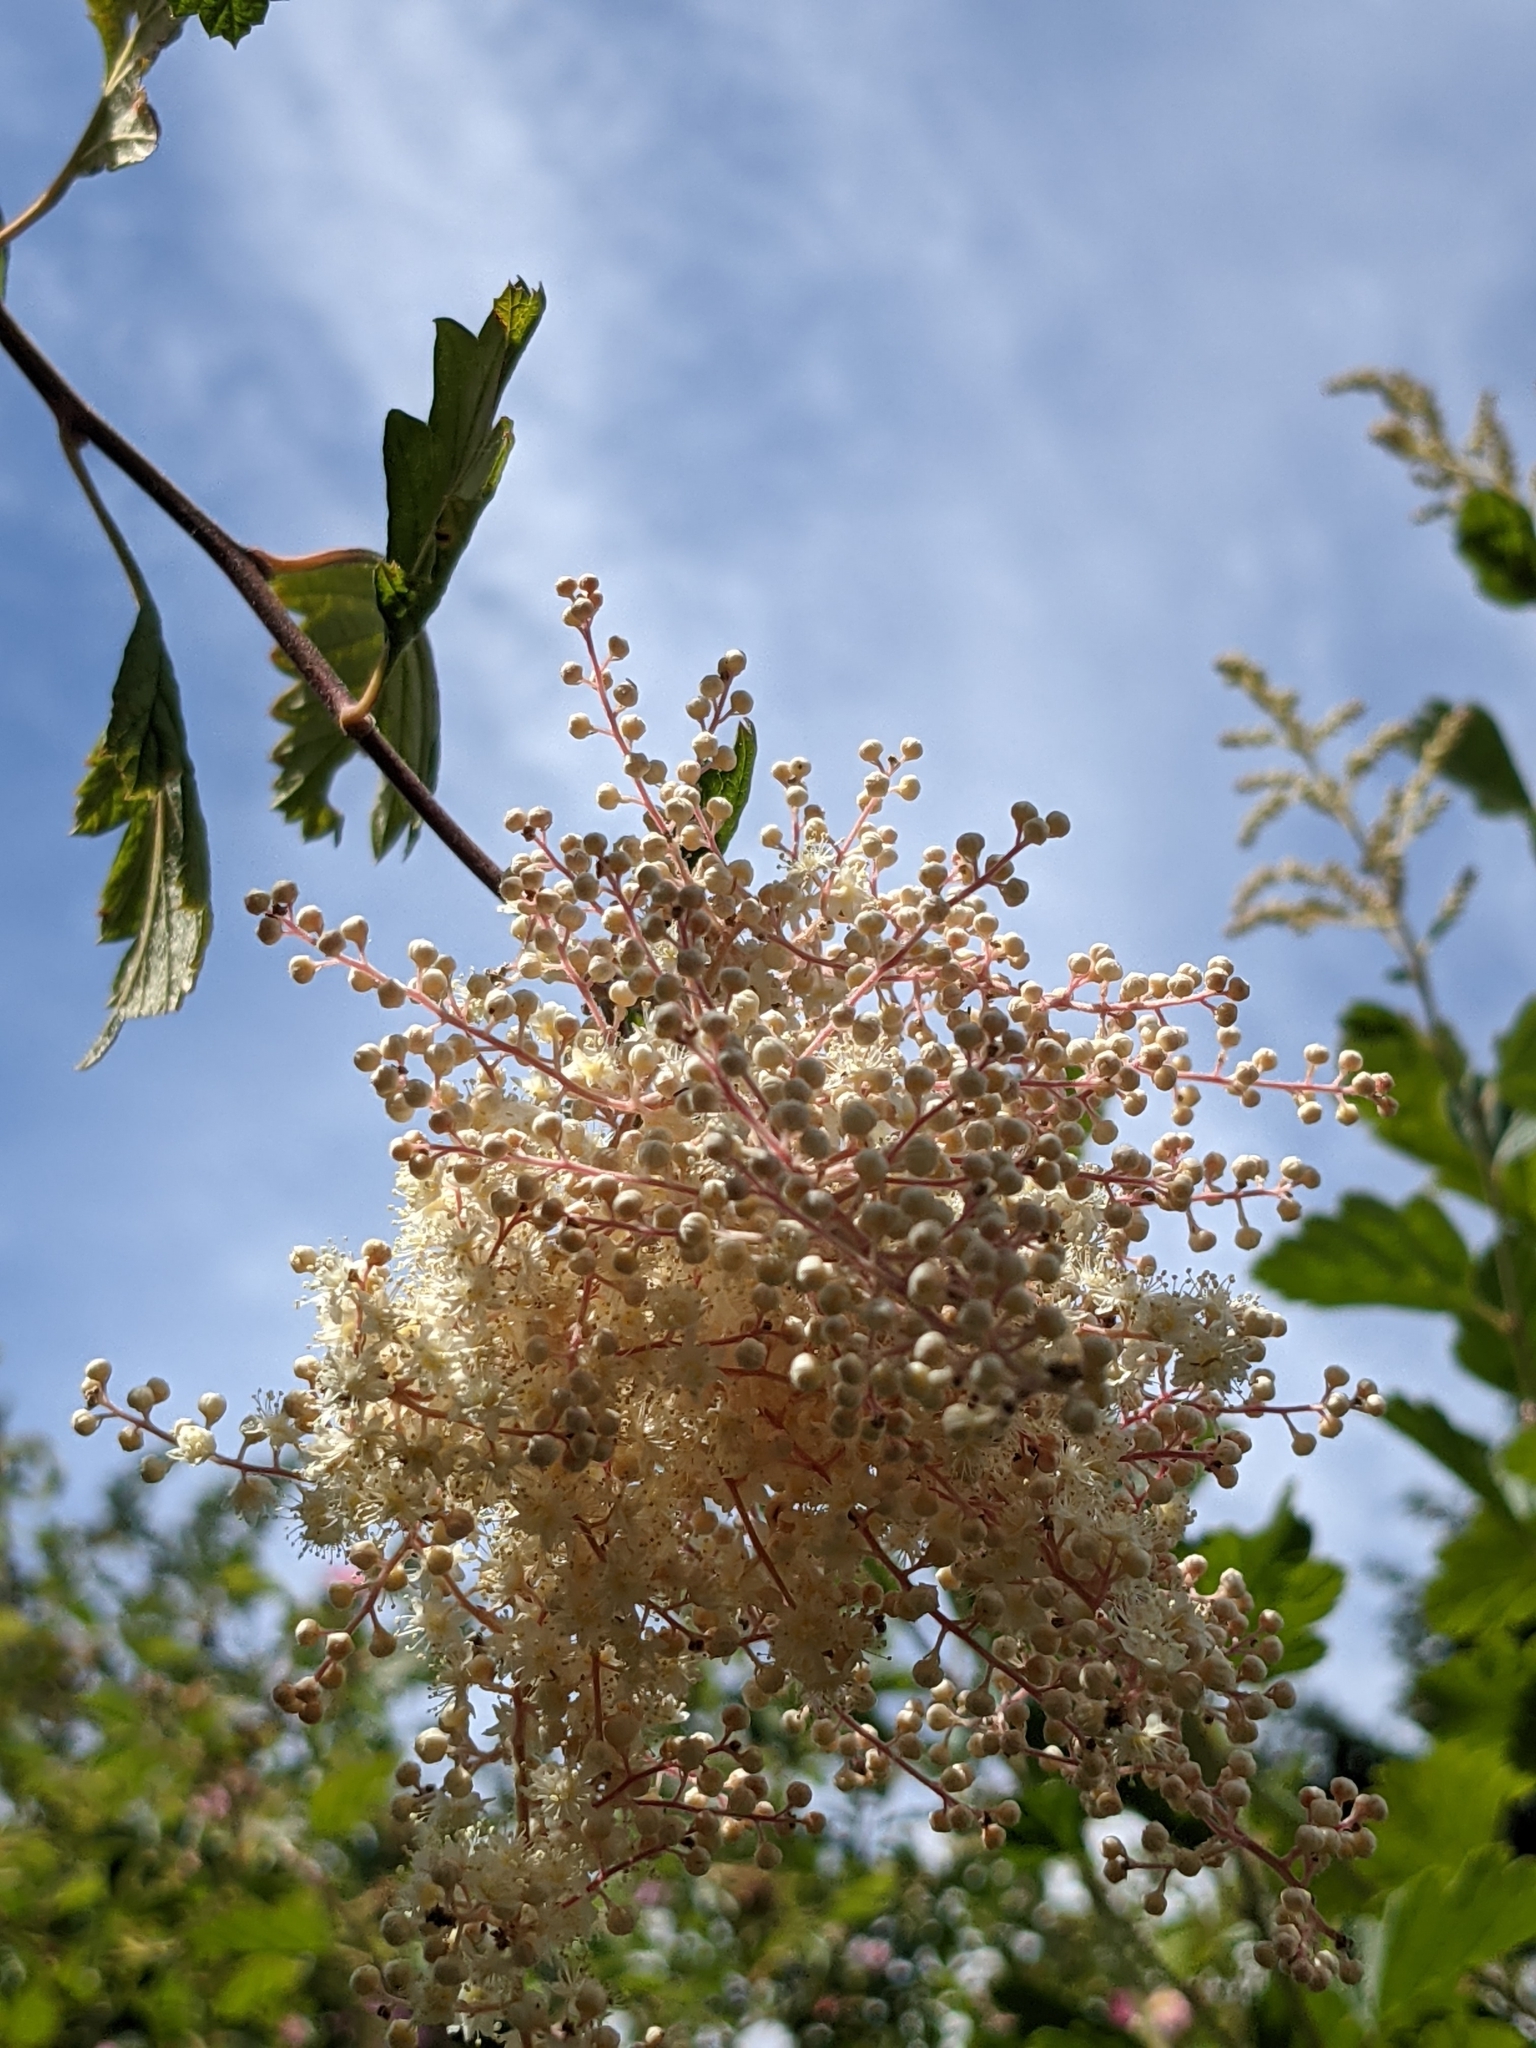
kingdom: Plantae
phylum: Tracheophyta
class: Magnoliopsida
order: Rosales
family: Rosaceae
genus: Holodiscus
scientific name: Holodiscus discolor
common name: Oceanspray
